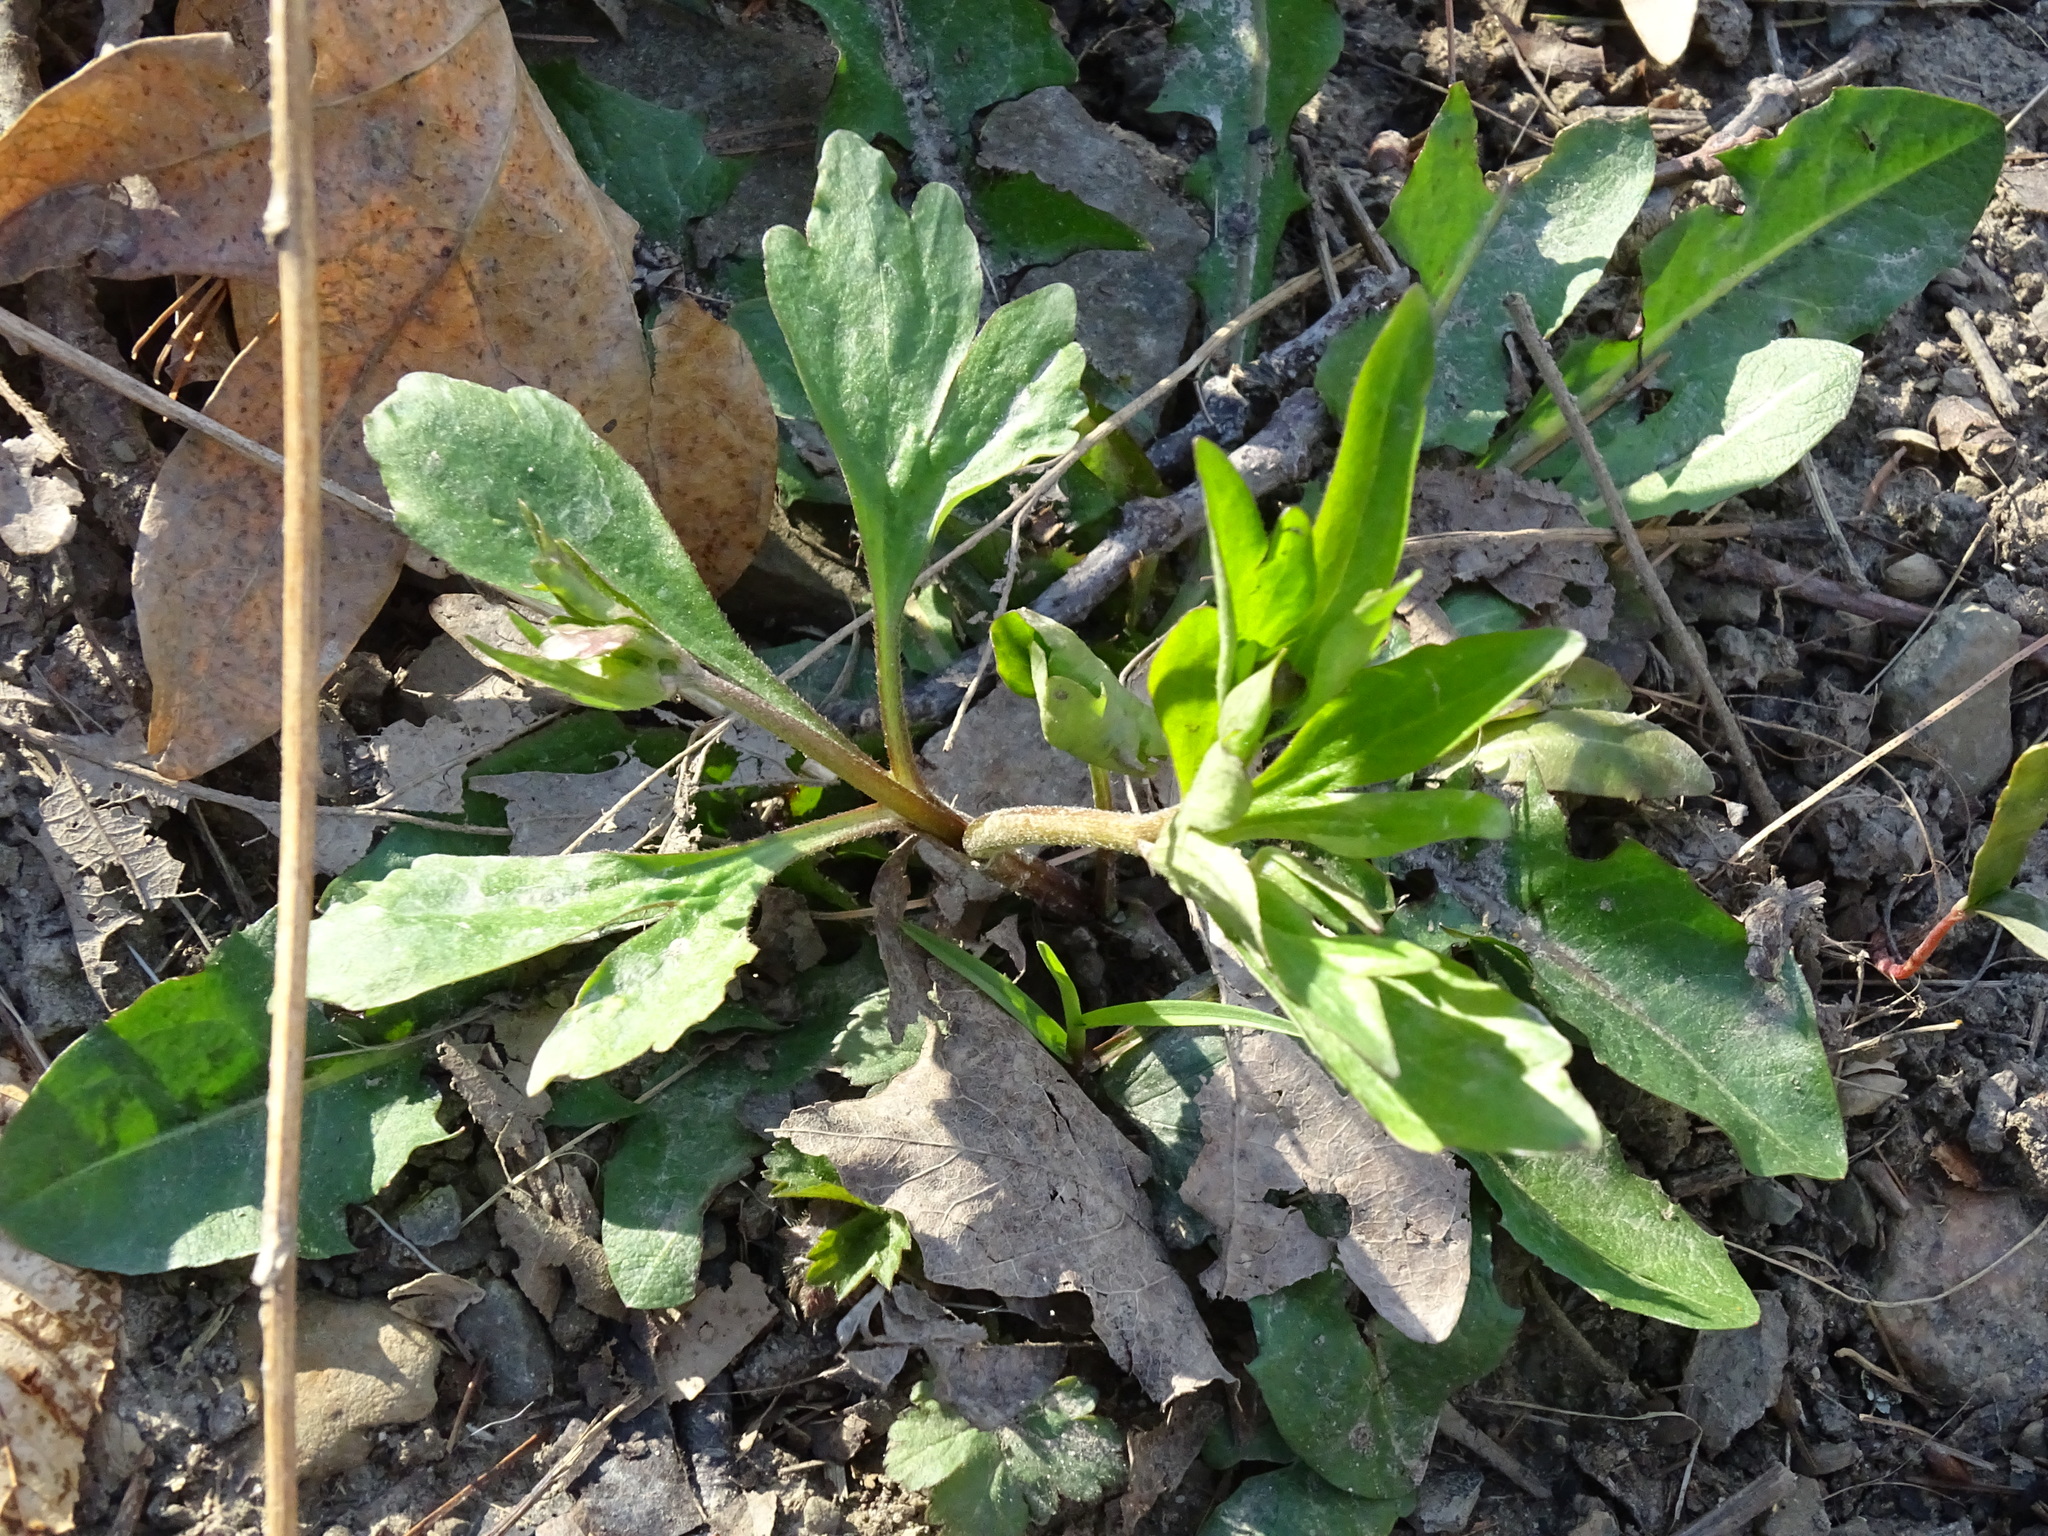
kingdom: Plantae
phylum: Tracheophyta
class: Magnoliopsida
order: Ranunculales
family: Ranunculaceae
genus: Ranunculus
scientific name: Ranunculus abortivus
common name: Early wood buttercup
